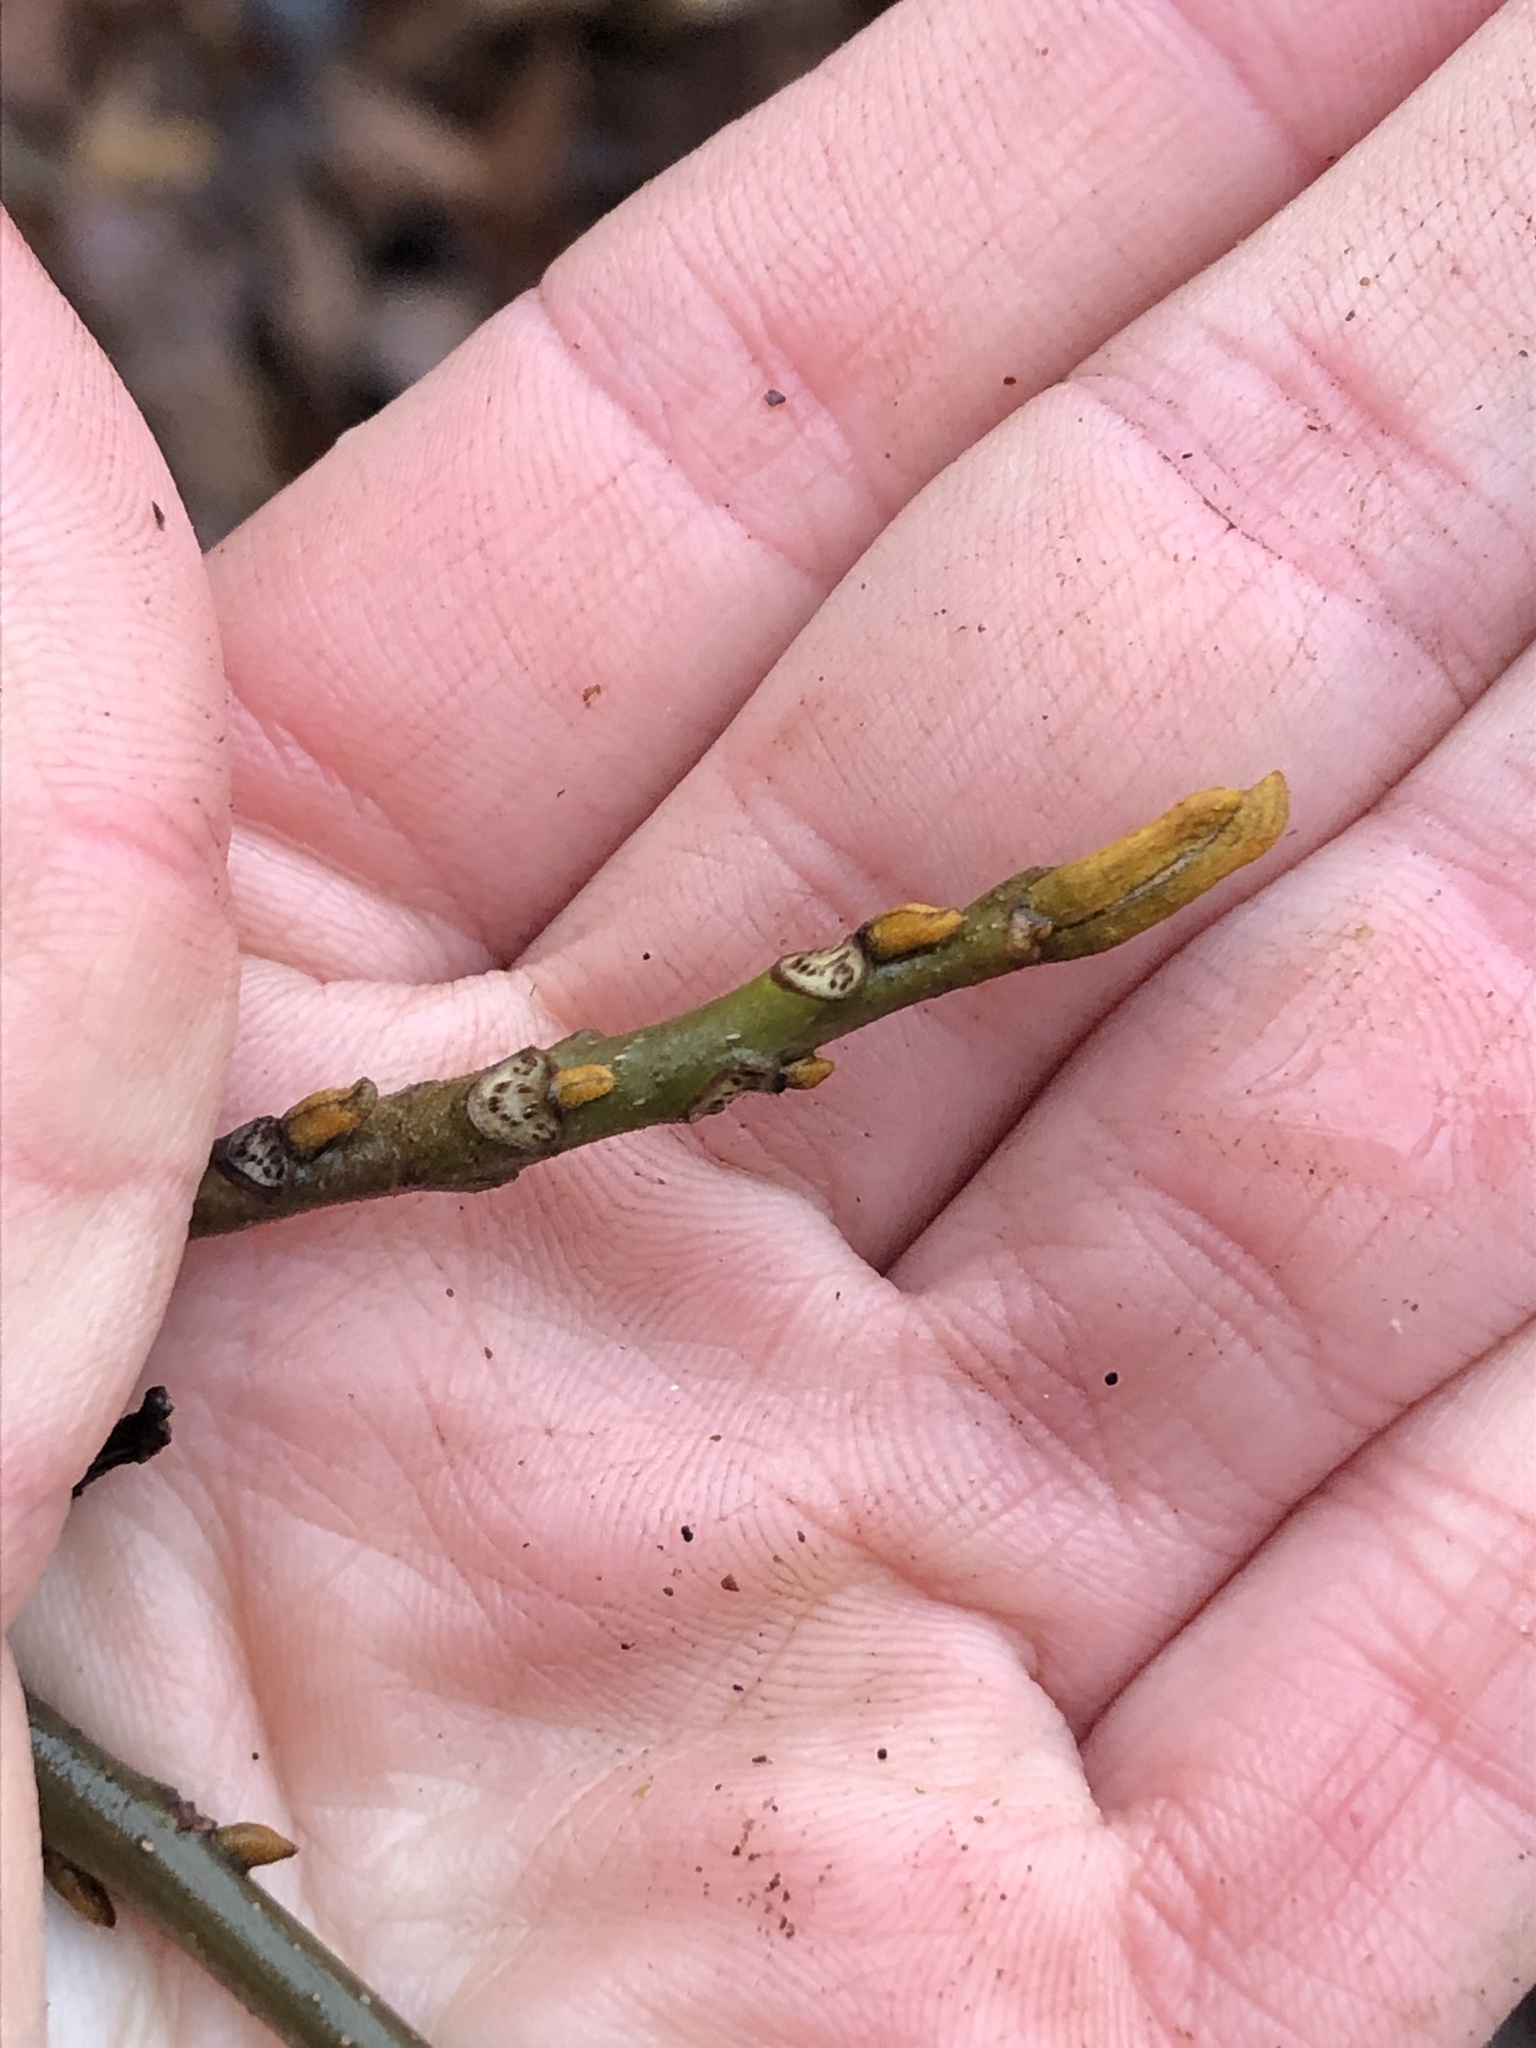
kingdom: Plantae
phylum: Tracheophyta
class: Magnoliopsida
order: Fagales
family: Juglandaceae
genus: Carya
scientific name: Carya cordiformis
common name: Bitternut hickory
